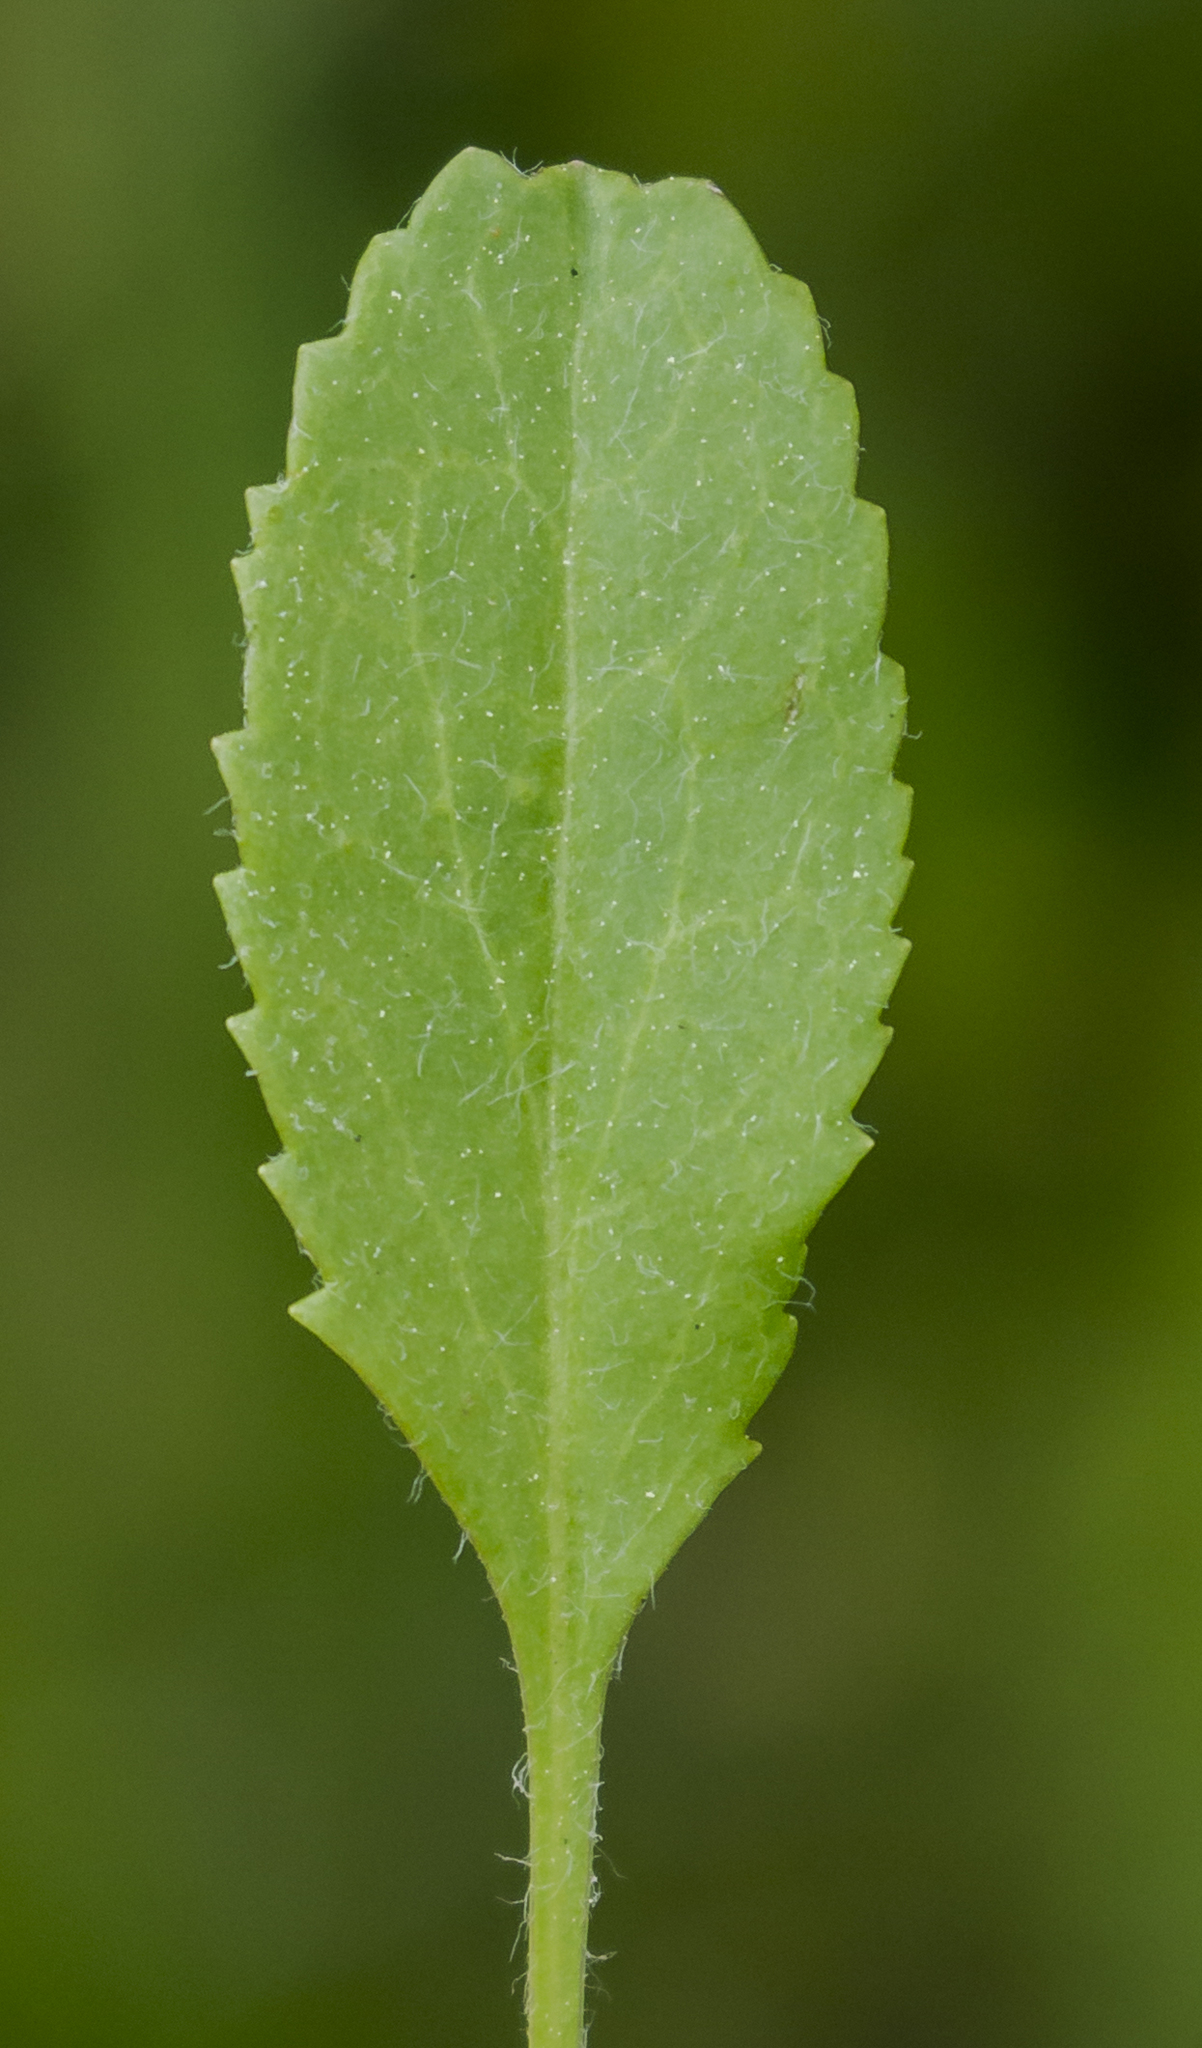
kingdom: Plantae
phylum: Tracheophyta
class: Magnoliopsida
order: Asterales
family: Asteraceae
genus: Packera
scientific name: Packera paupercula
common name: Balsam groundsel
